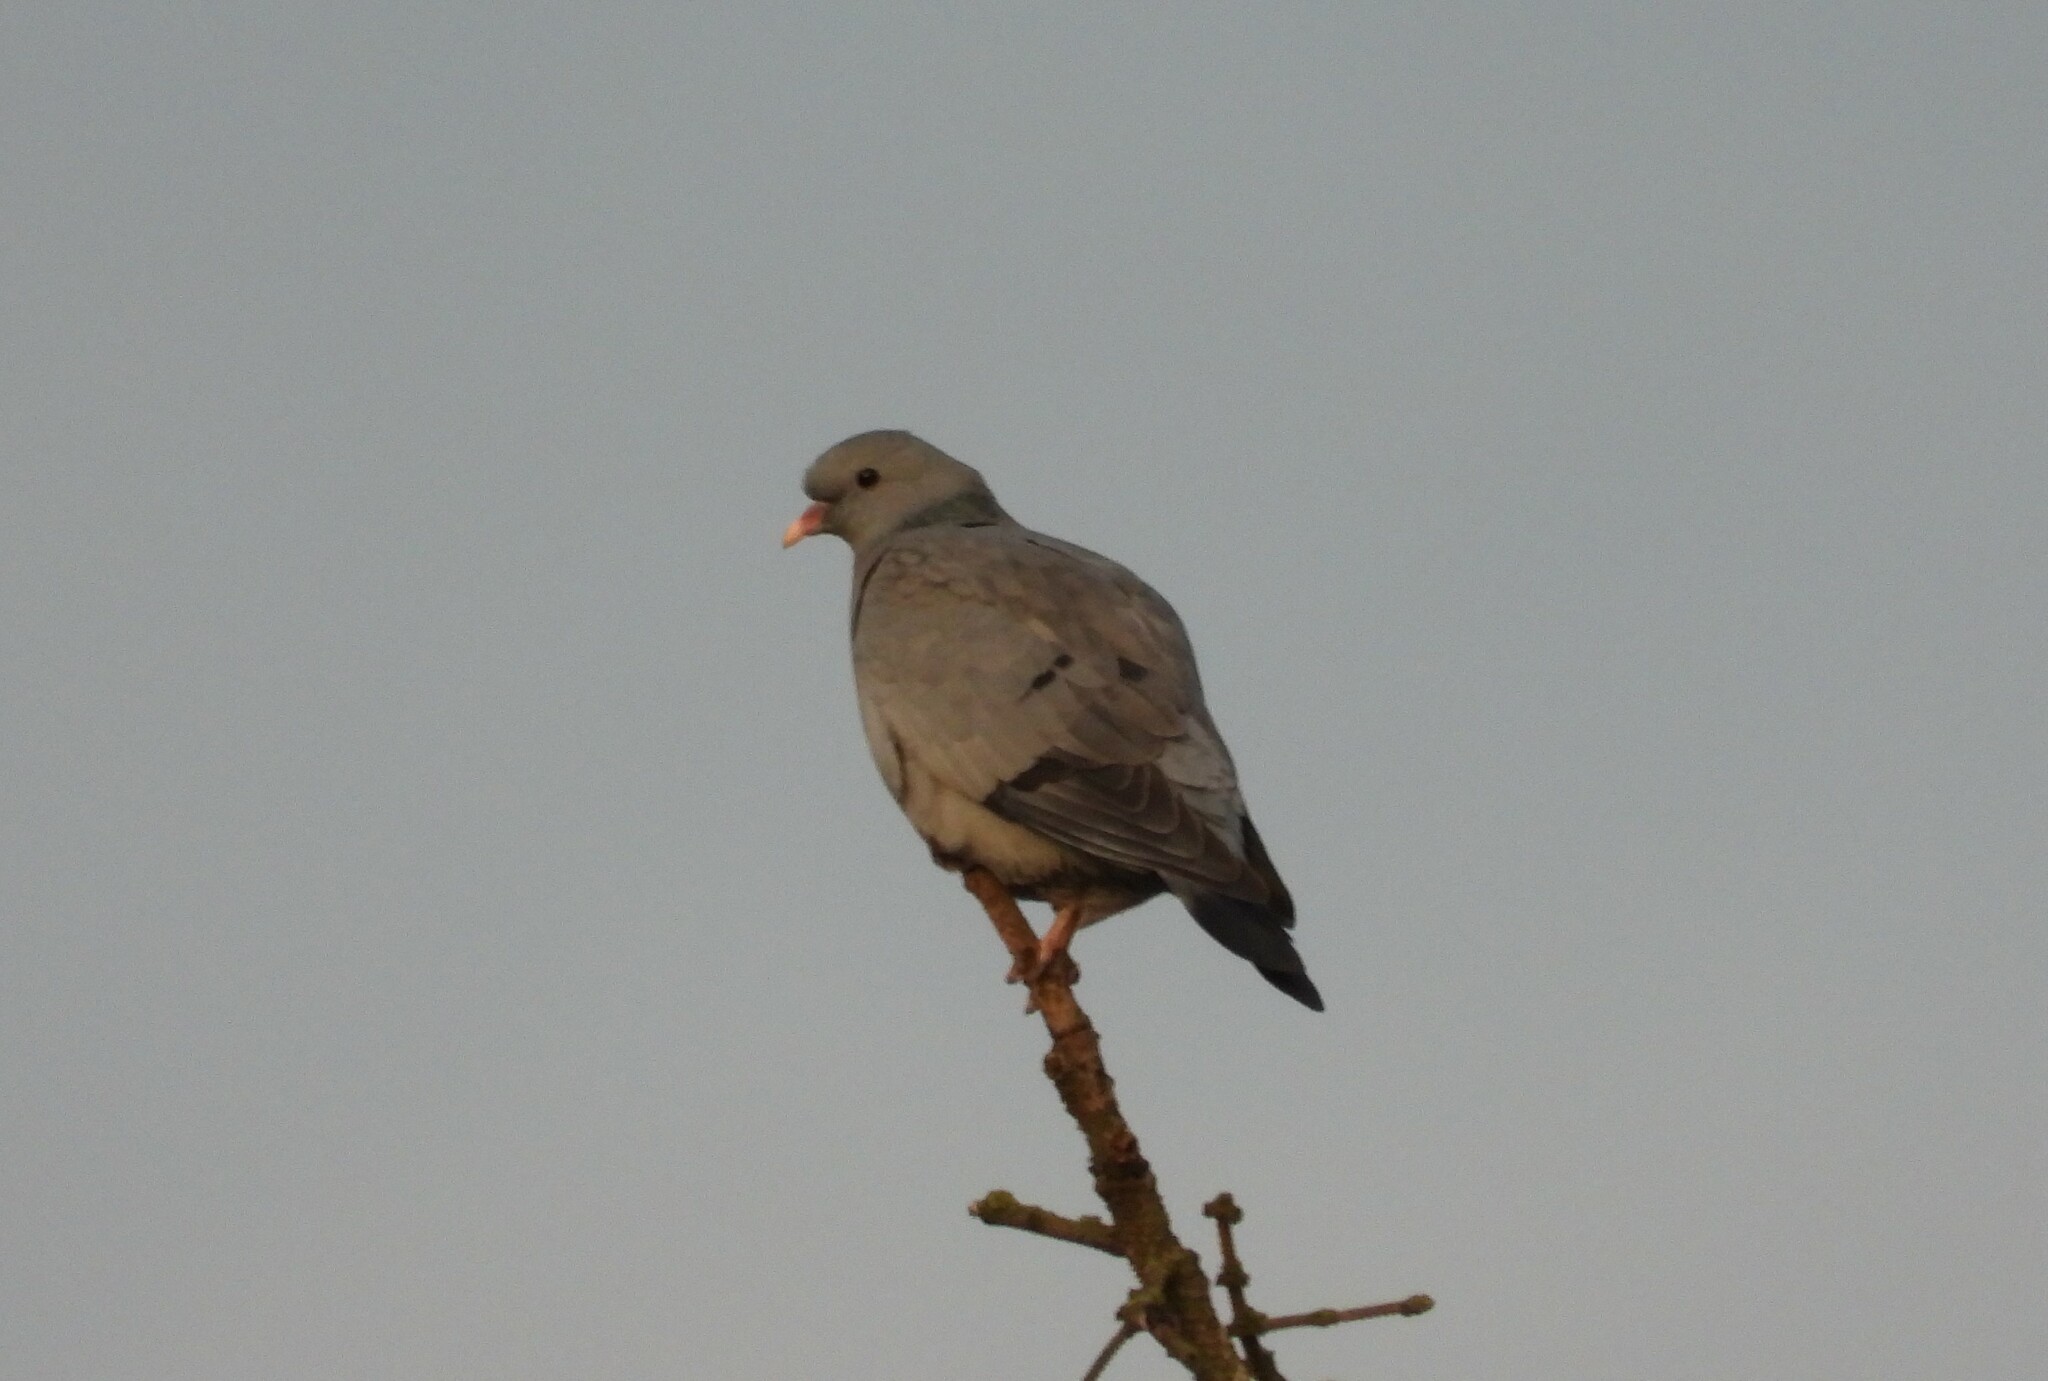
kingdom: Animalia
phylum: Chordata
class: Aves
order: Columbiformes
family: Columbidae
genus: Columba
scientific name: Columba oenas
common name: Stock dove
